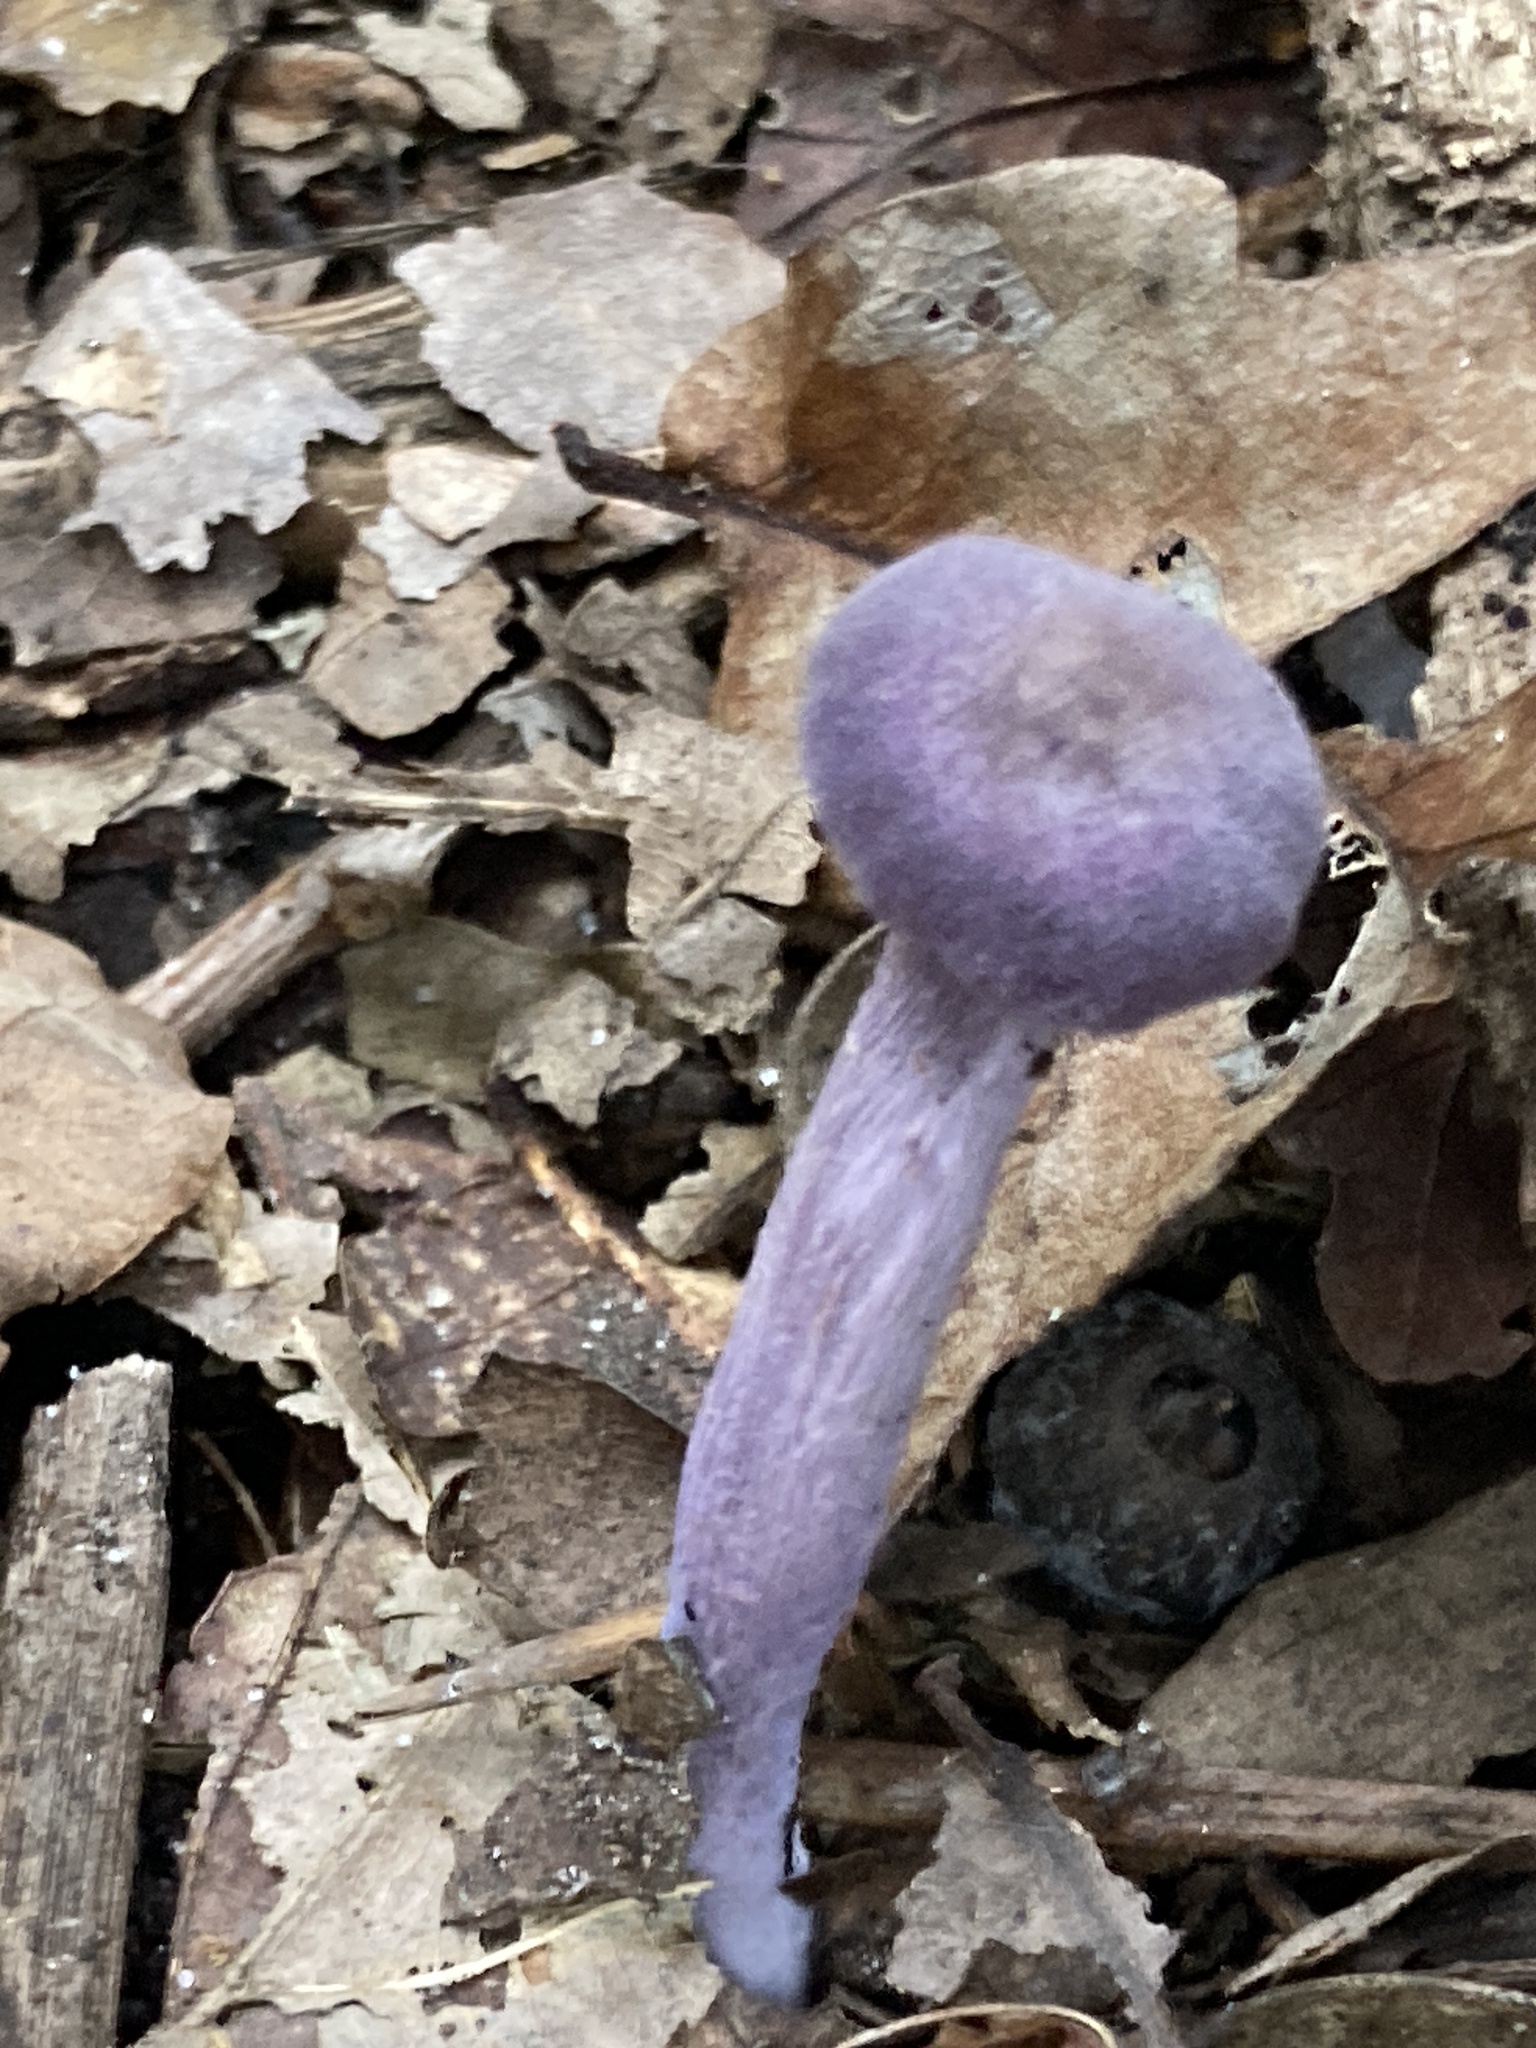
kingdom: Fungi
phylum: Basidiomycota
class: Agaricomycetes
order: Agaricales
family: Hydnangiaceae
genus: Laccaria
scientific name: Laccaria amethystina
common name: Amethyst deceiver
